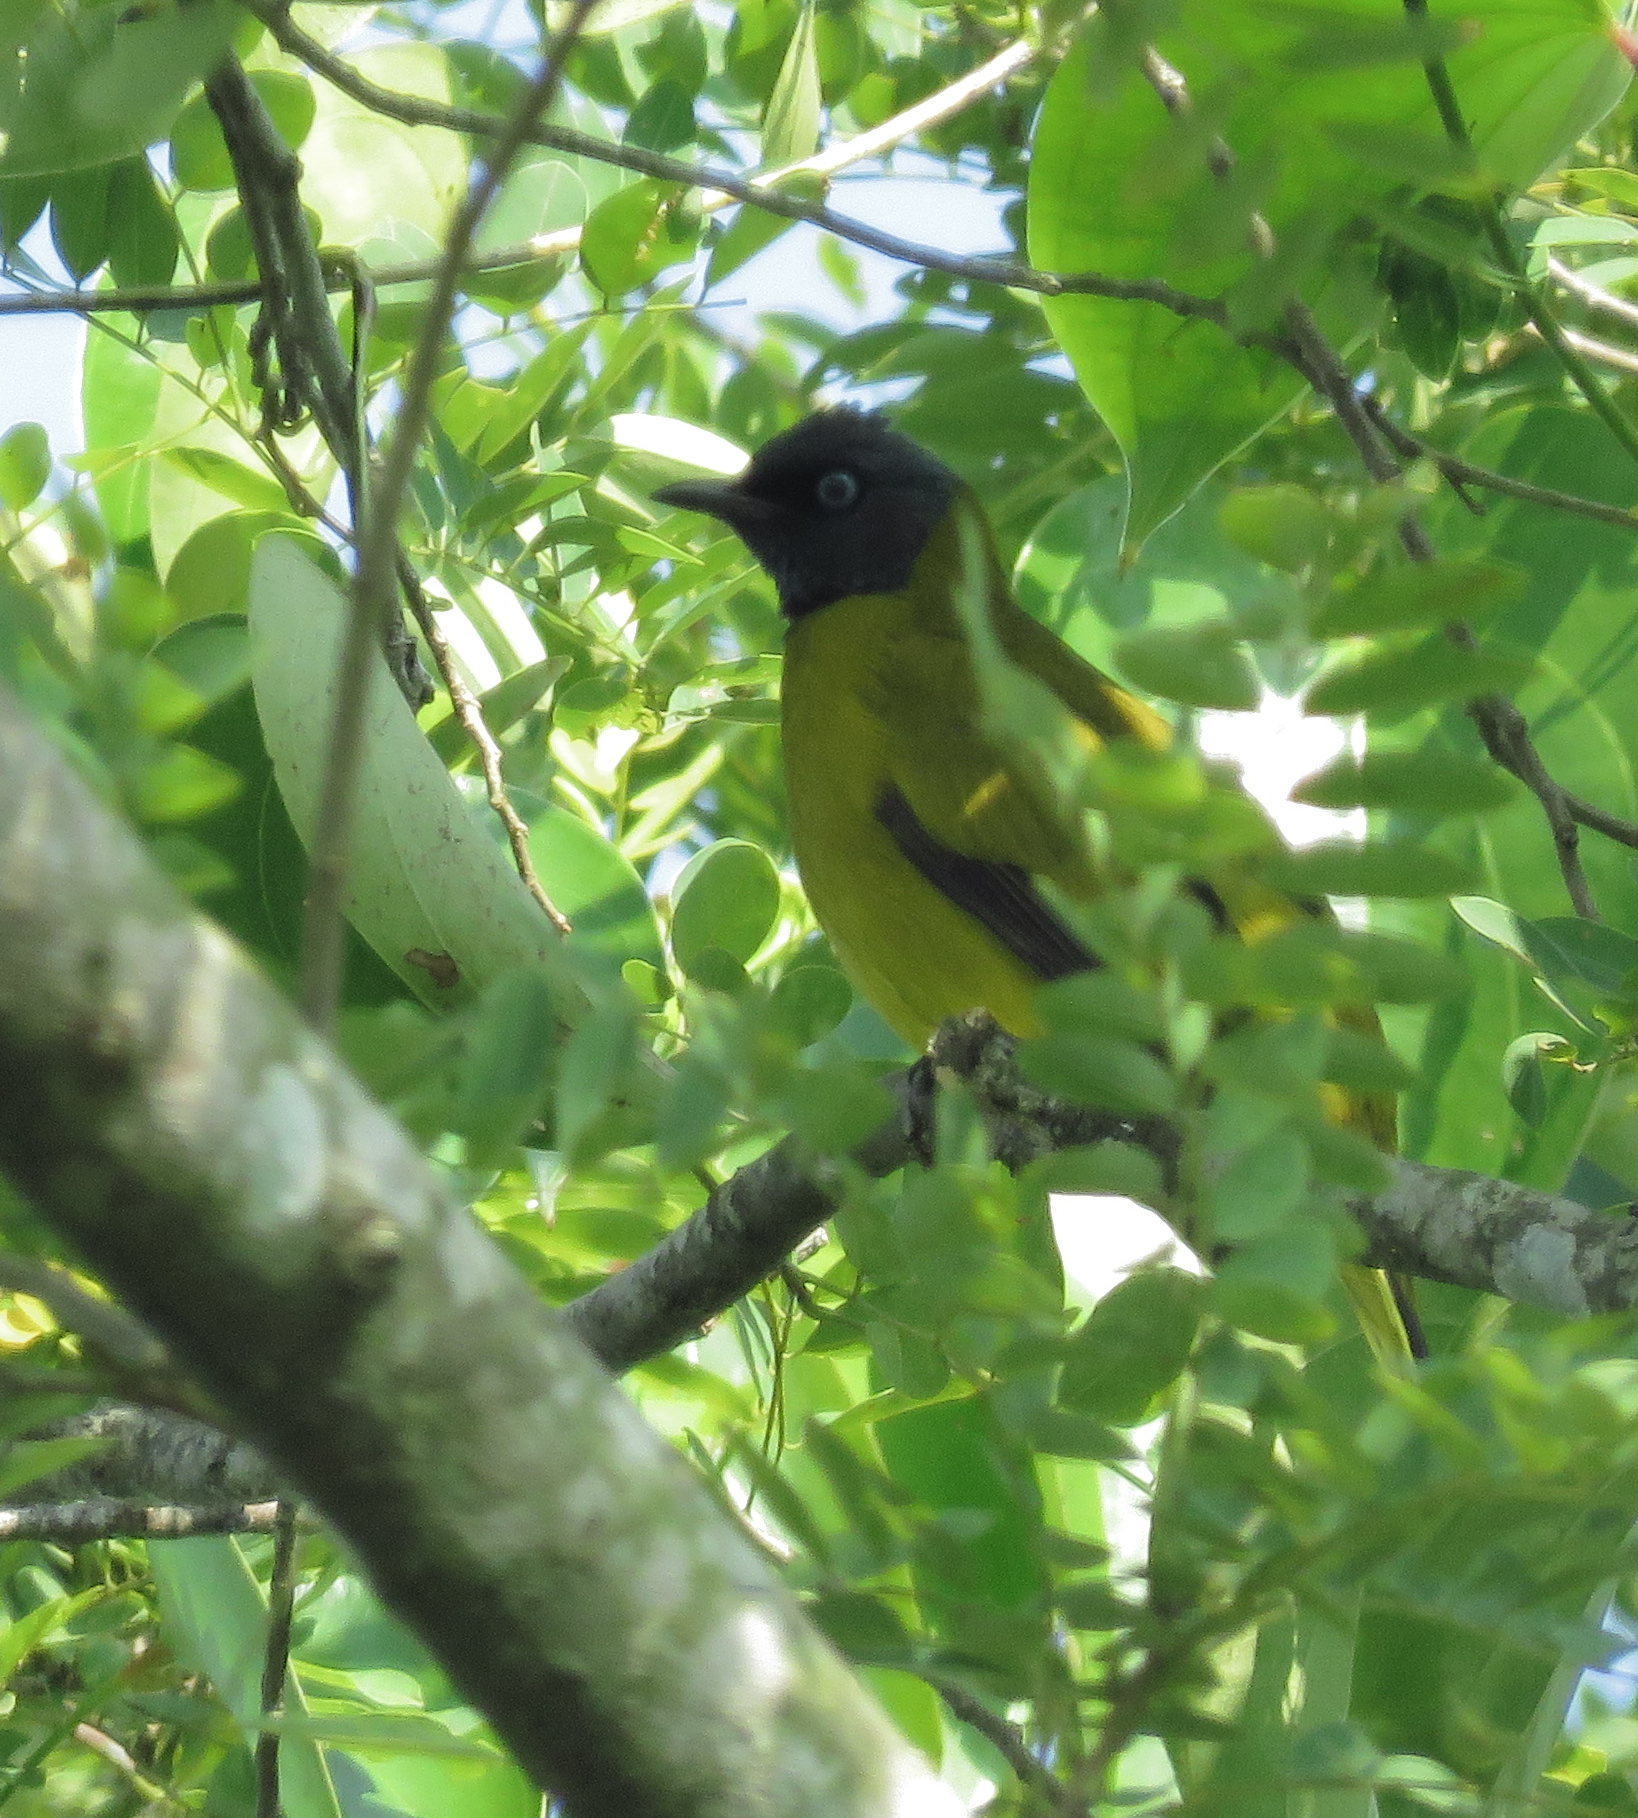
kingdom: Animalia
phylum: Chordata
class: Aves
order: Passeriformes
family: Pycnonotidae
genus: Microtarsus
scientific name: Microtarsus
